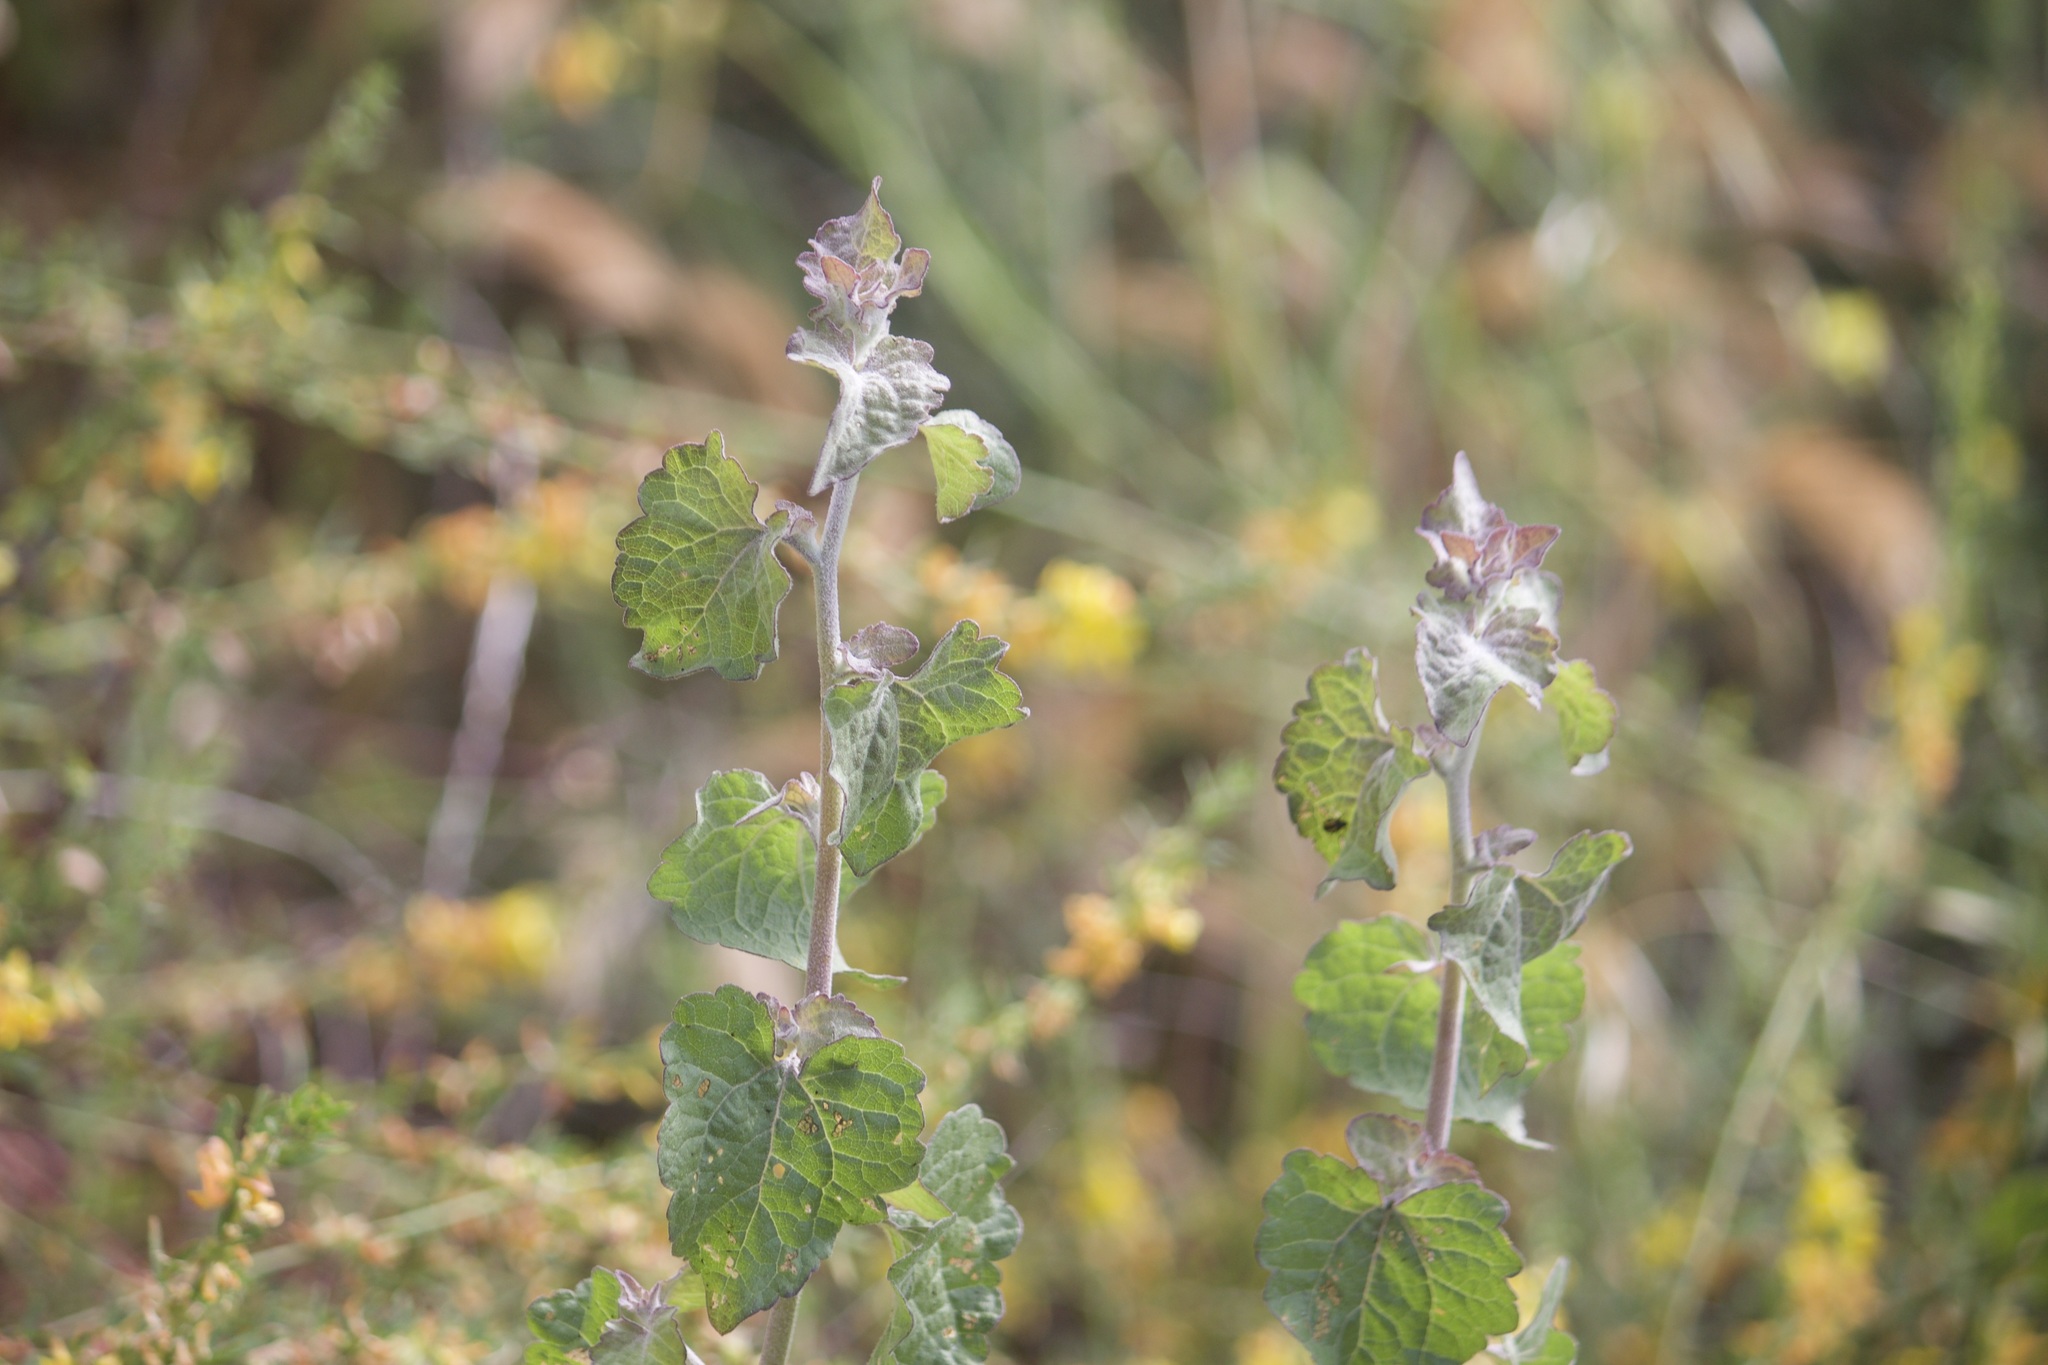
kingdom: Plantae
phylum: Tracheophyta
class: Magnoliopsida
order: Asterales
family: Asteraceae
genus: Brickellia
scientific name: Brickellia californica
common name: California brickellbush
